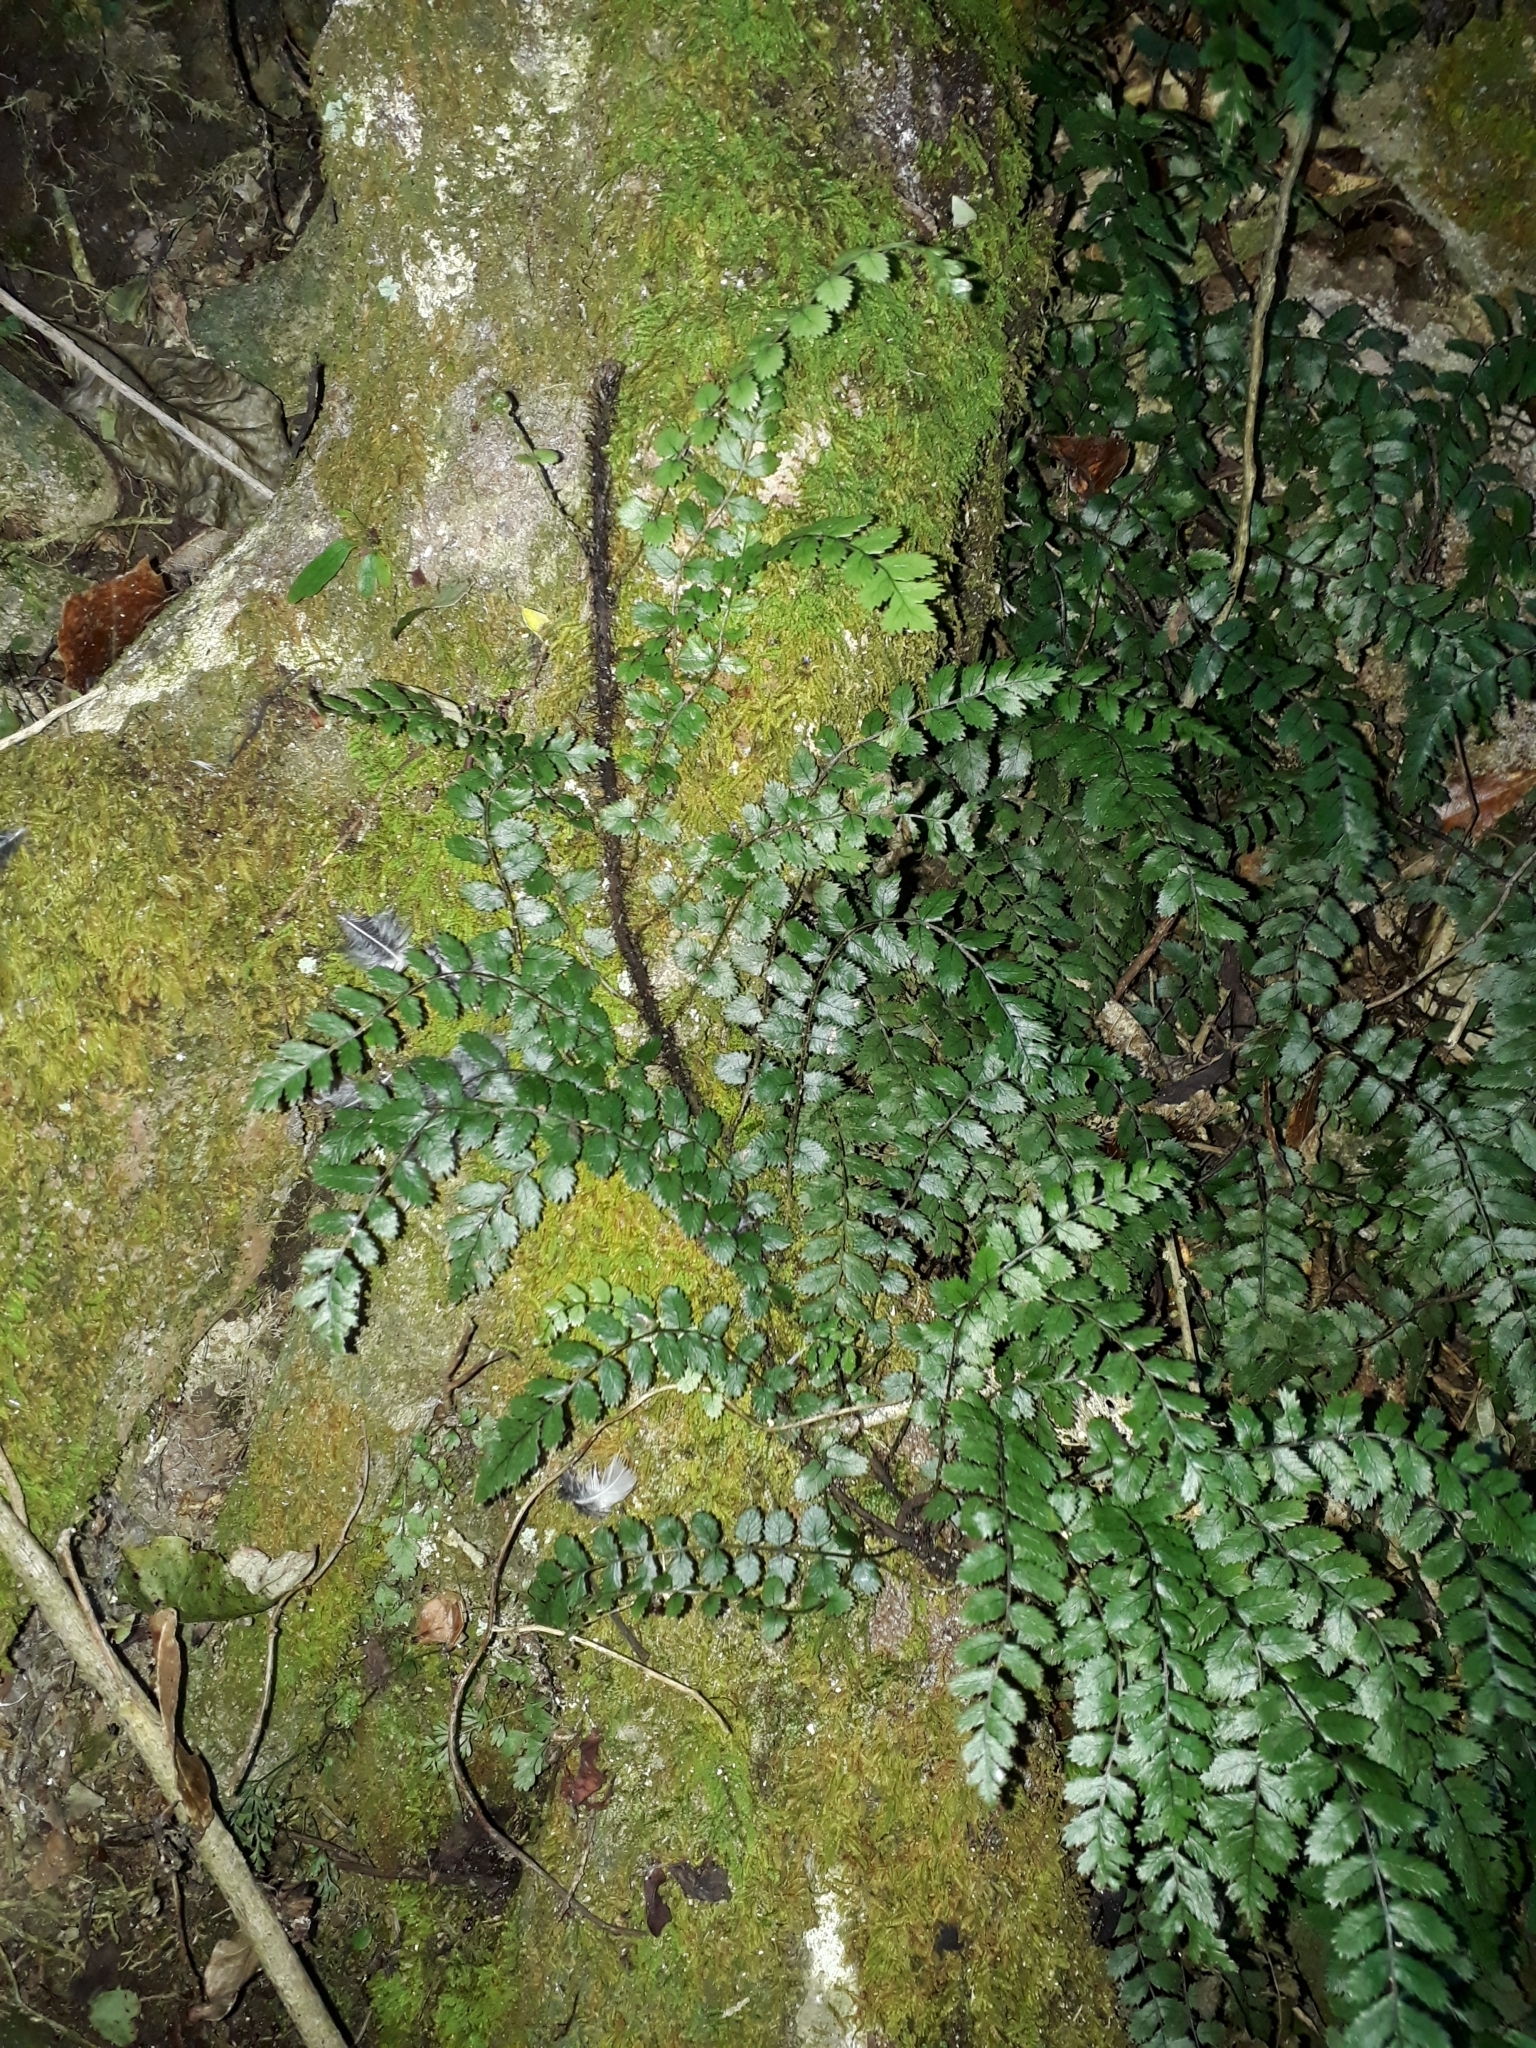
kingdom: Plantae
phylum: Tracheophyta
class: Polypodiopsida
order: Polypodiales
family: Blechnaceae
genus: Icarus
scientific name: Icarus filiformis
